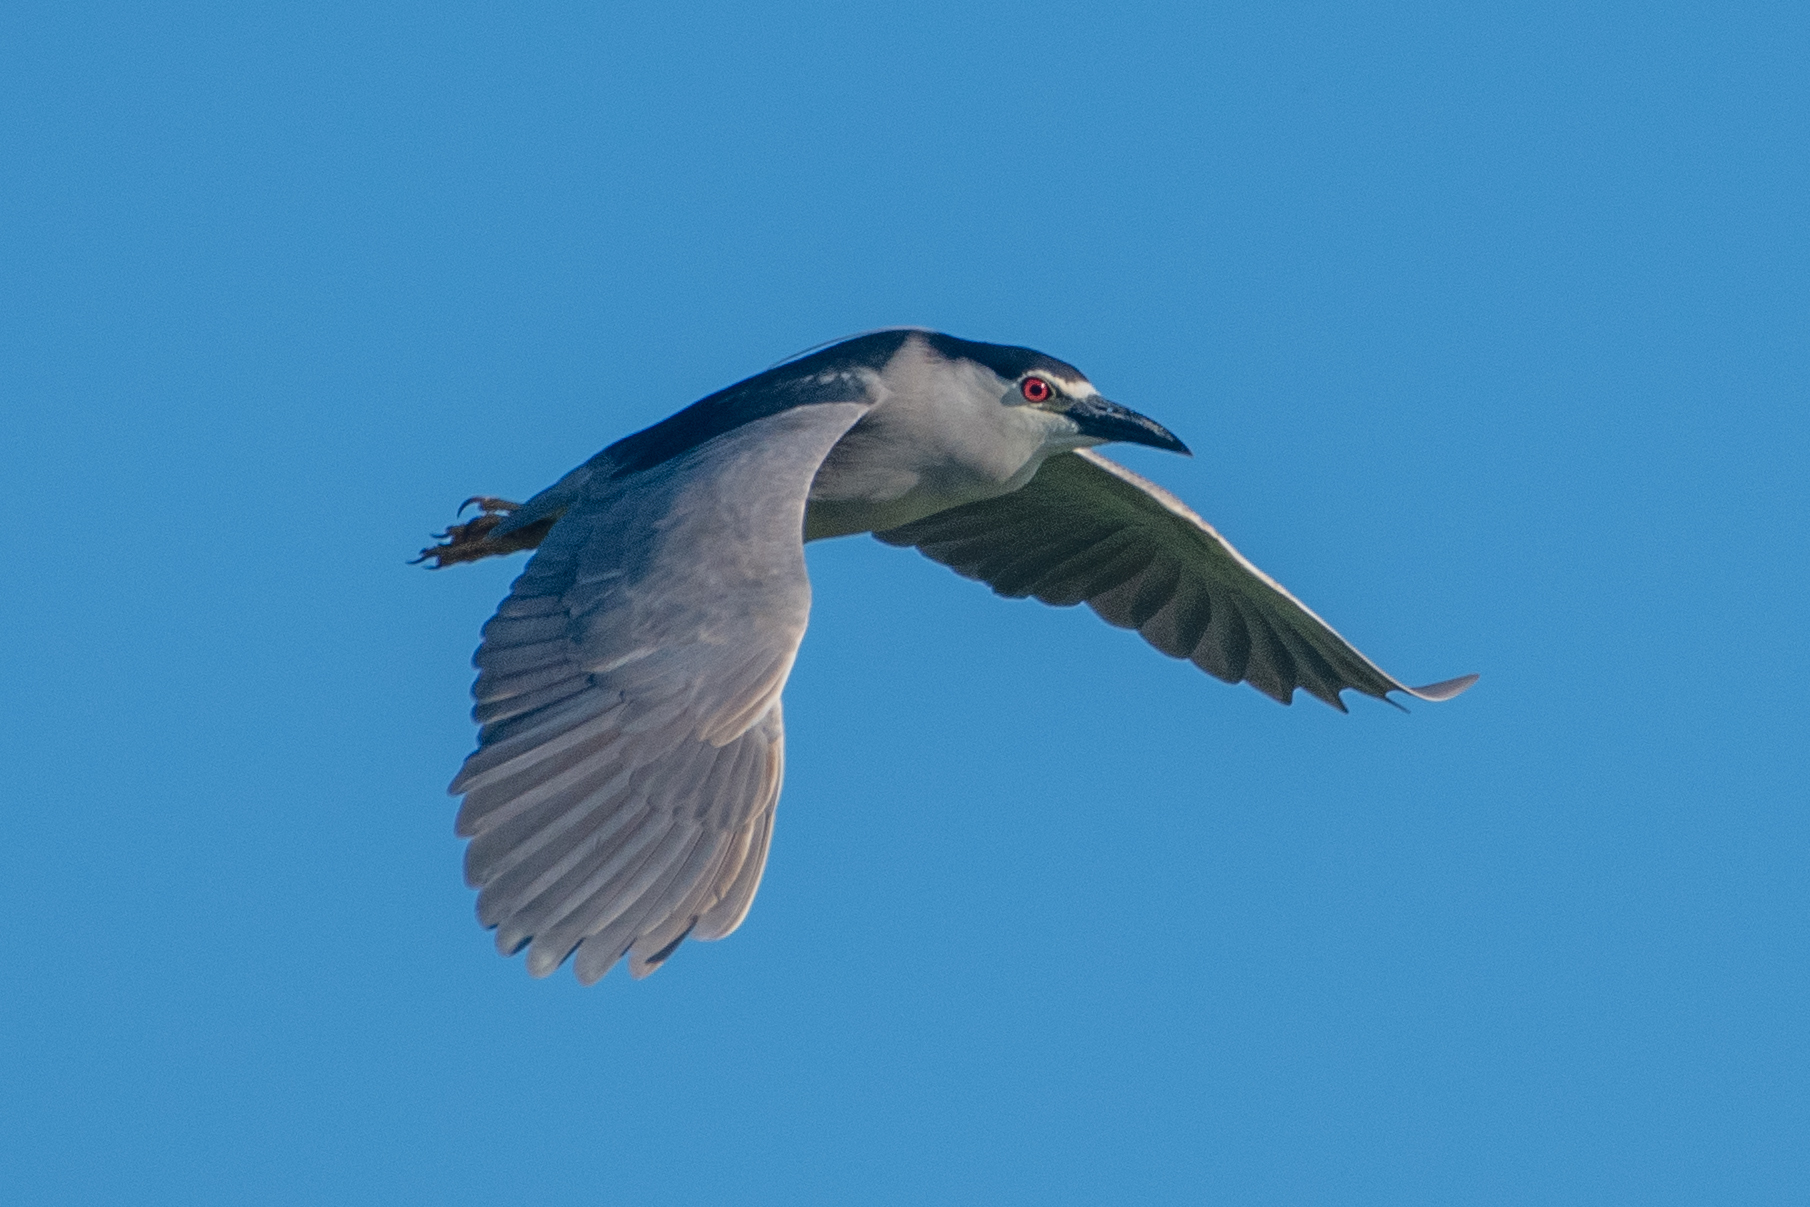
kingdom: Animalia
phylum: Chordata
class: Aves
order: Pelecaniformes
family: Ardeidae
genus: Nycticorax
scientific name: Nycticorax nycticorax
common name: Black-crowned night heron
